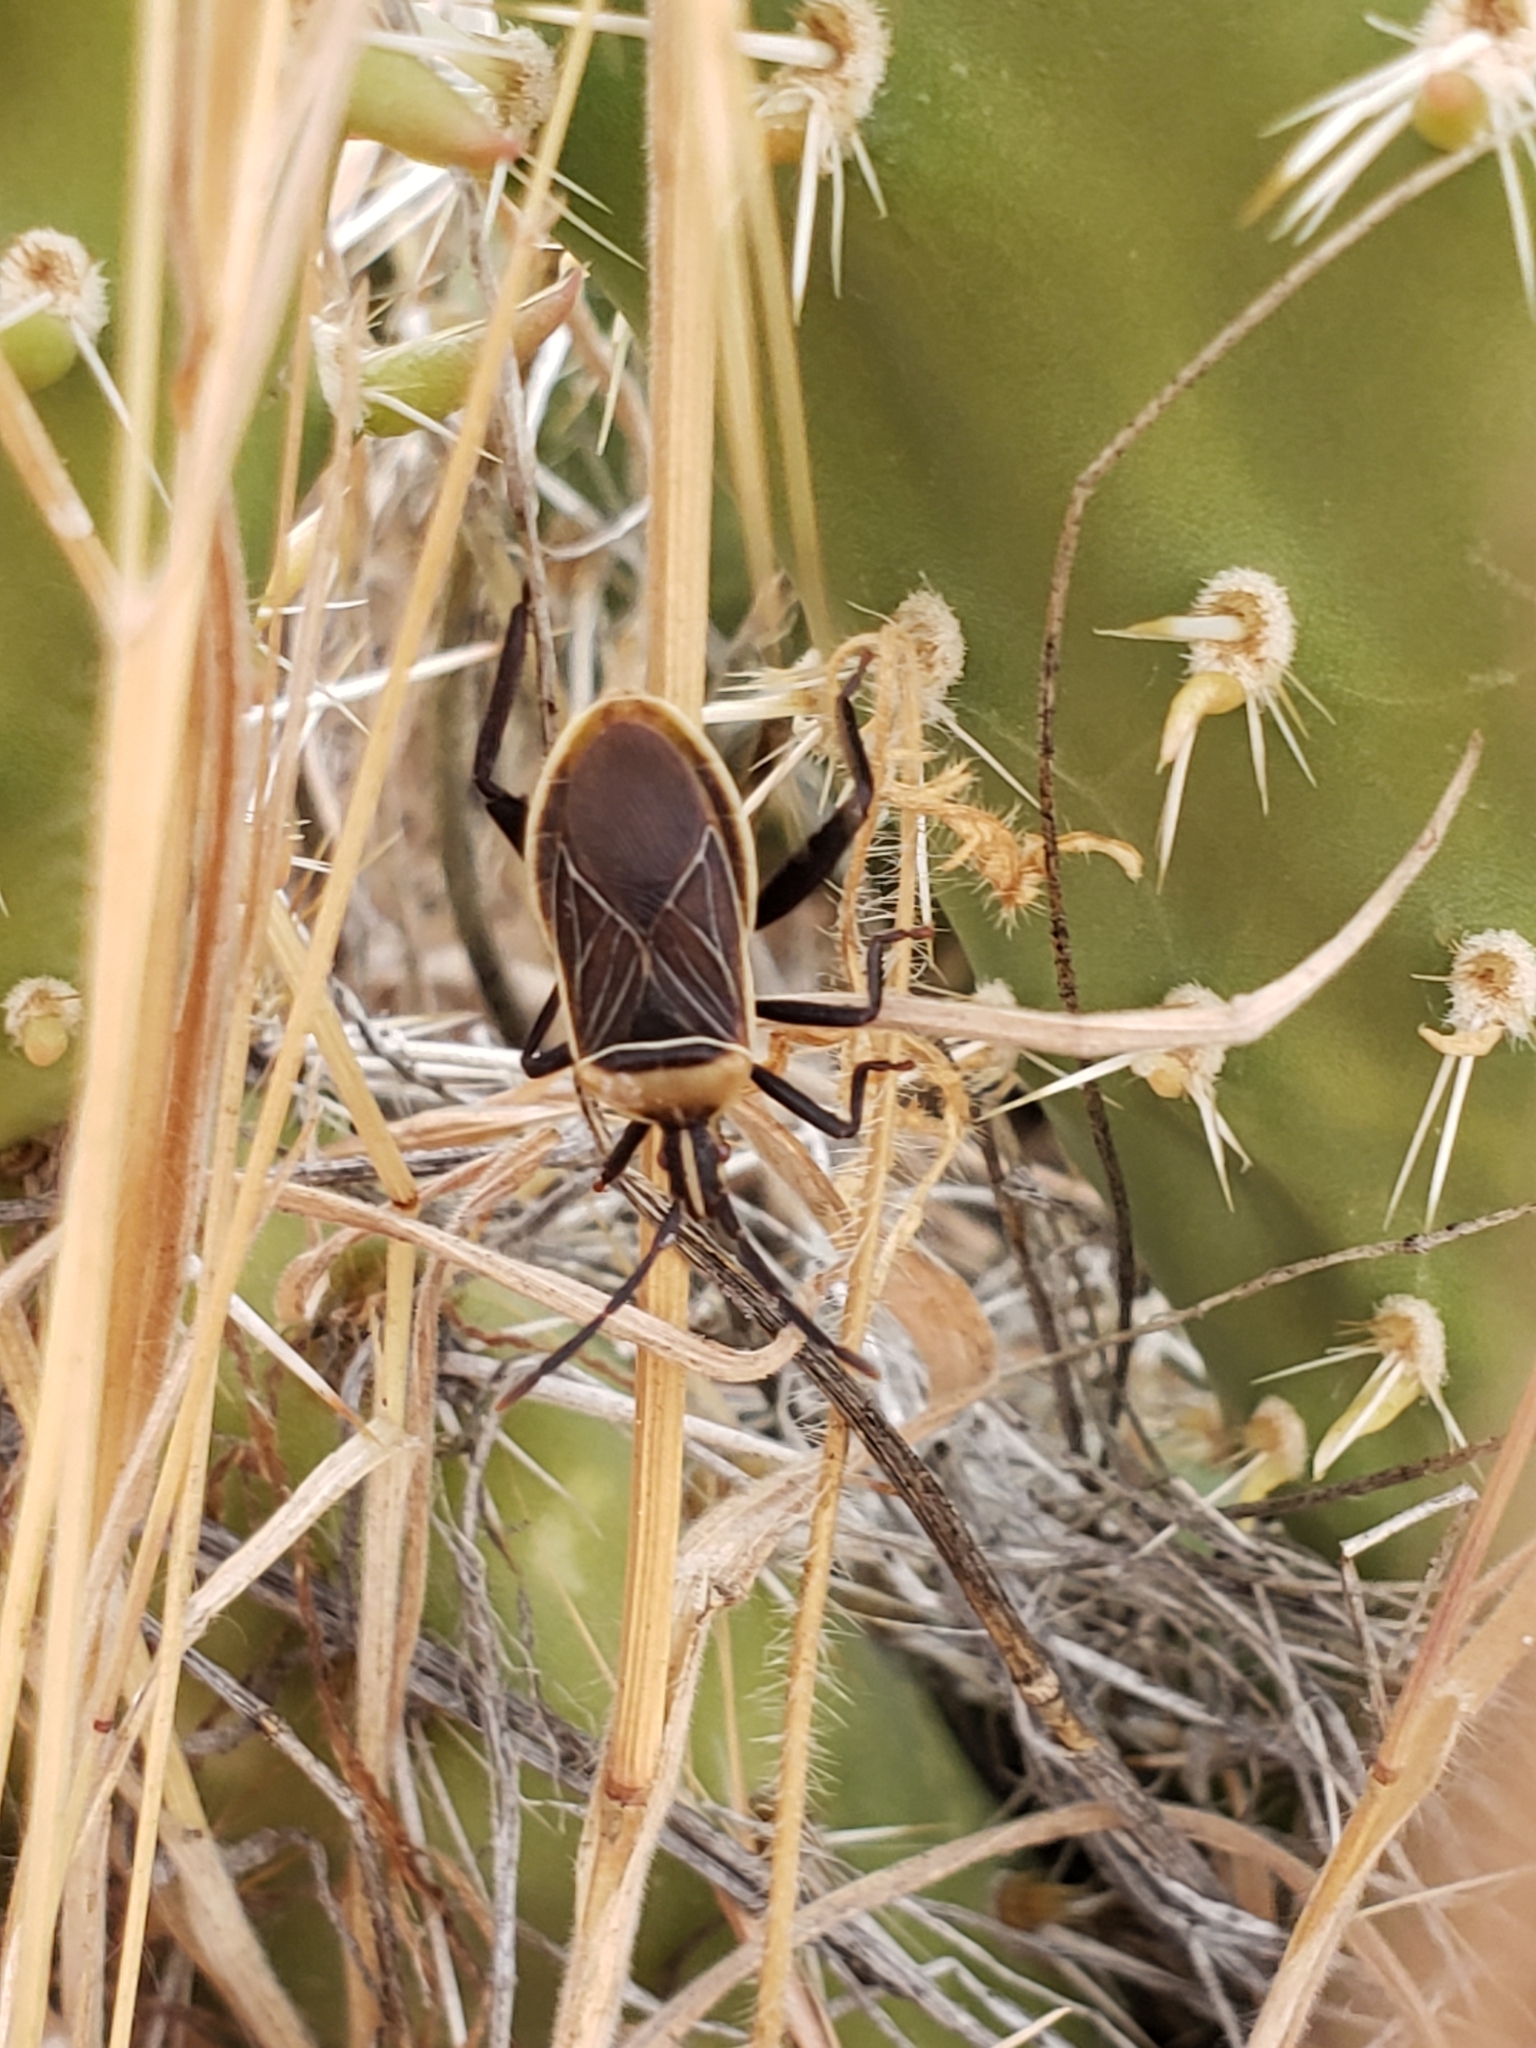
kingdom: Animalia
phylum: Arthropoda
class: Insecta
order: Hemiptera
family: Coreidae
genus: Chelinidea
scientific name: Chelinidea vittiger
